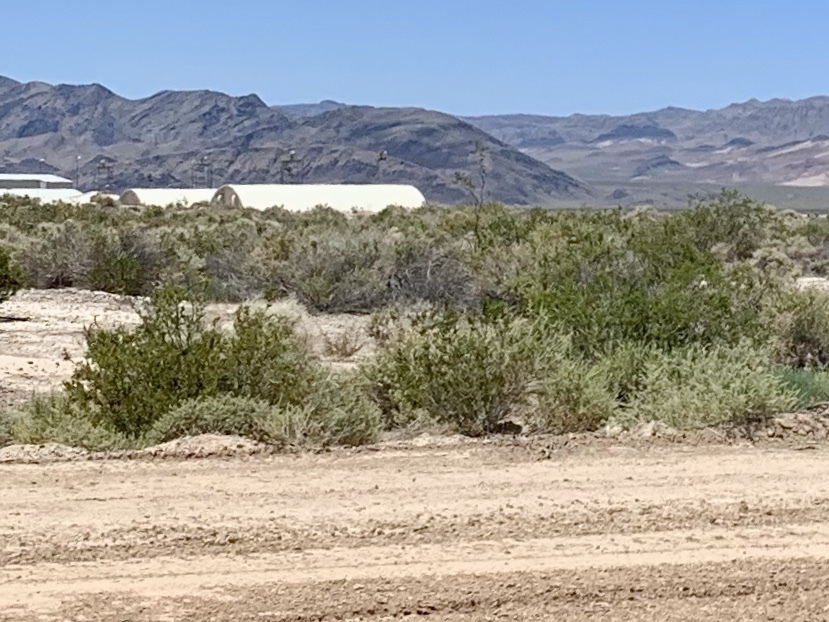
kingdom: Plantae
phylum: Tracheophyta
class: Magnoliopsida
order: Zygophyllales
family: Zygophyllaceae
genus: Larrea
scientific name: Larrea tridentata
